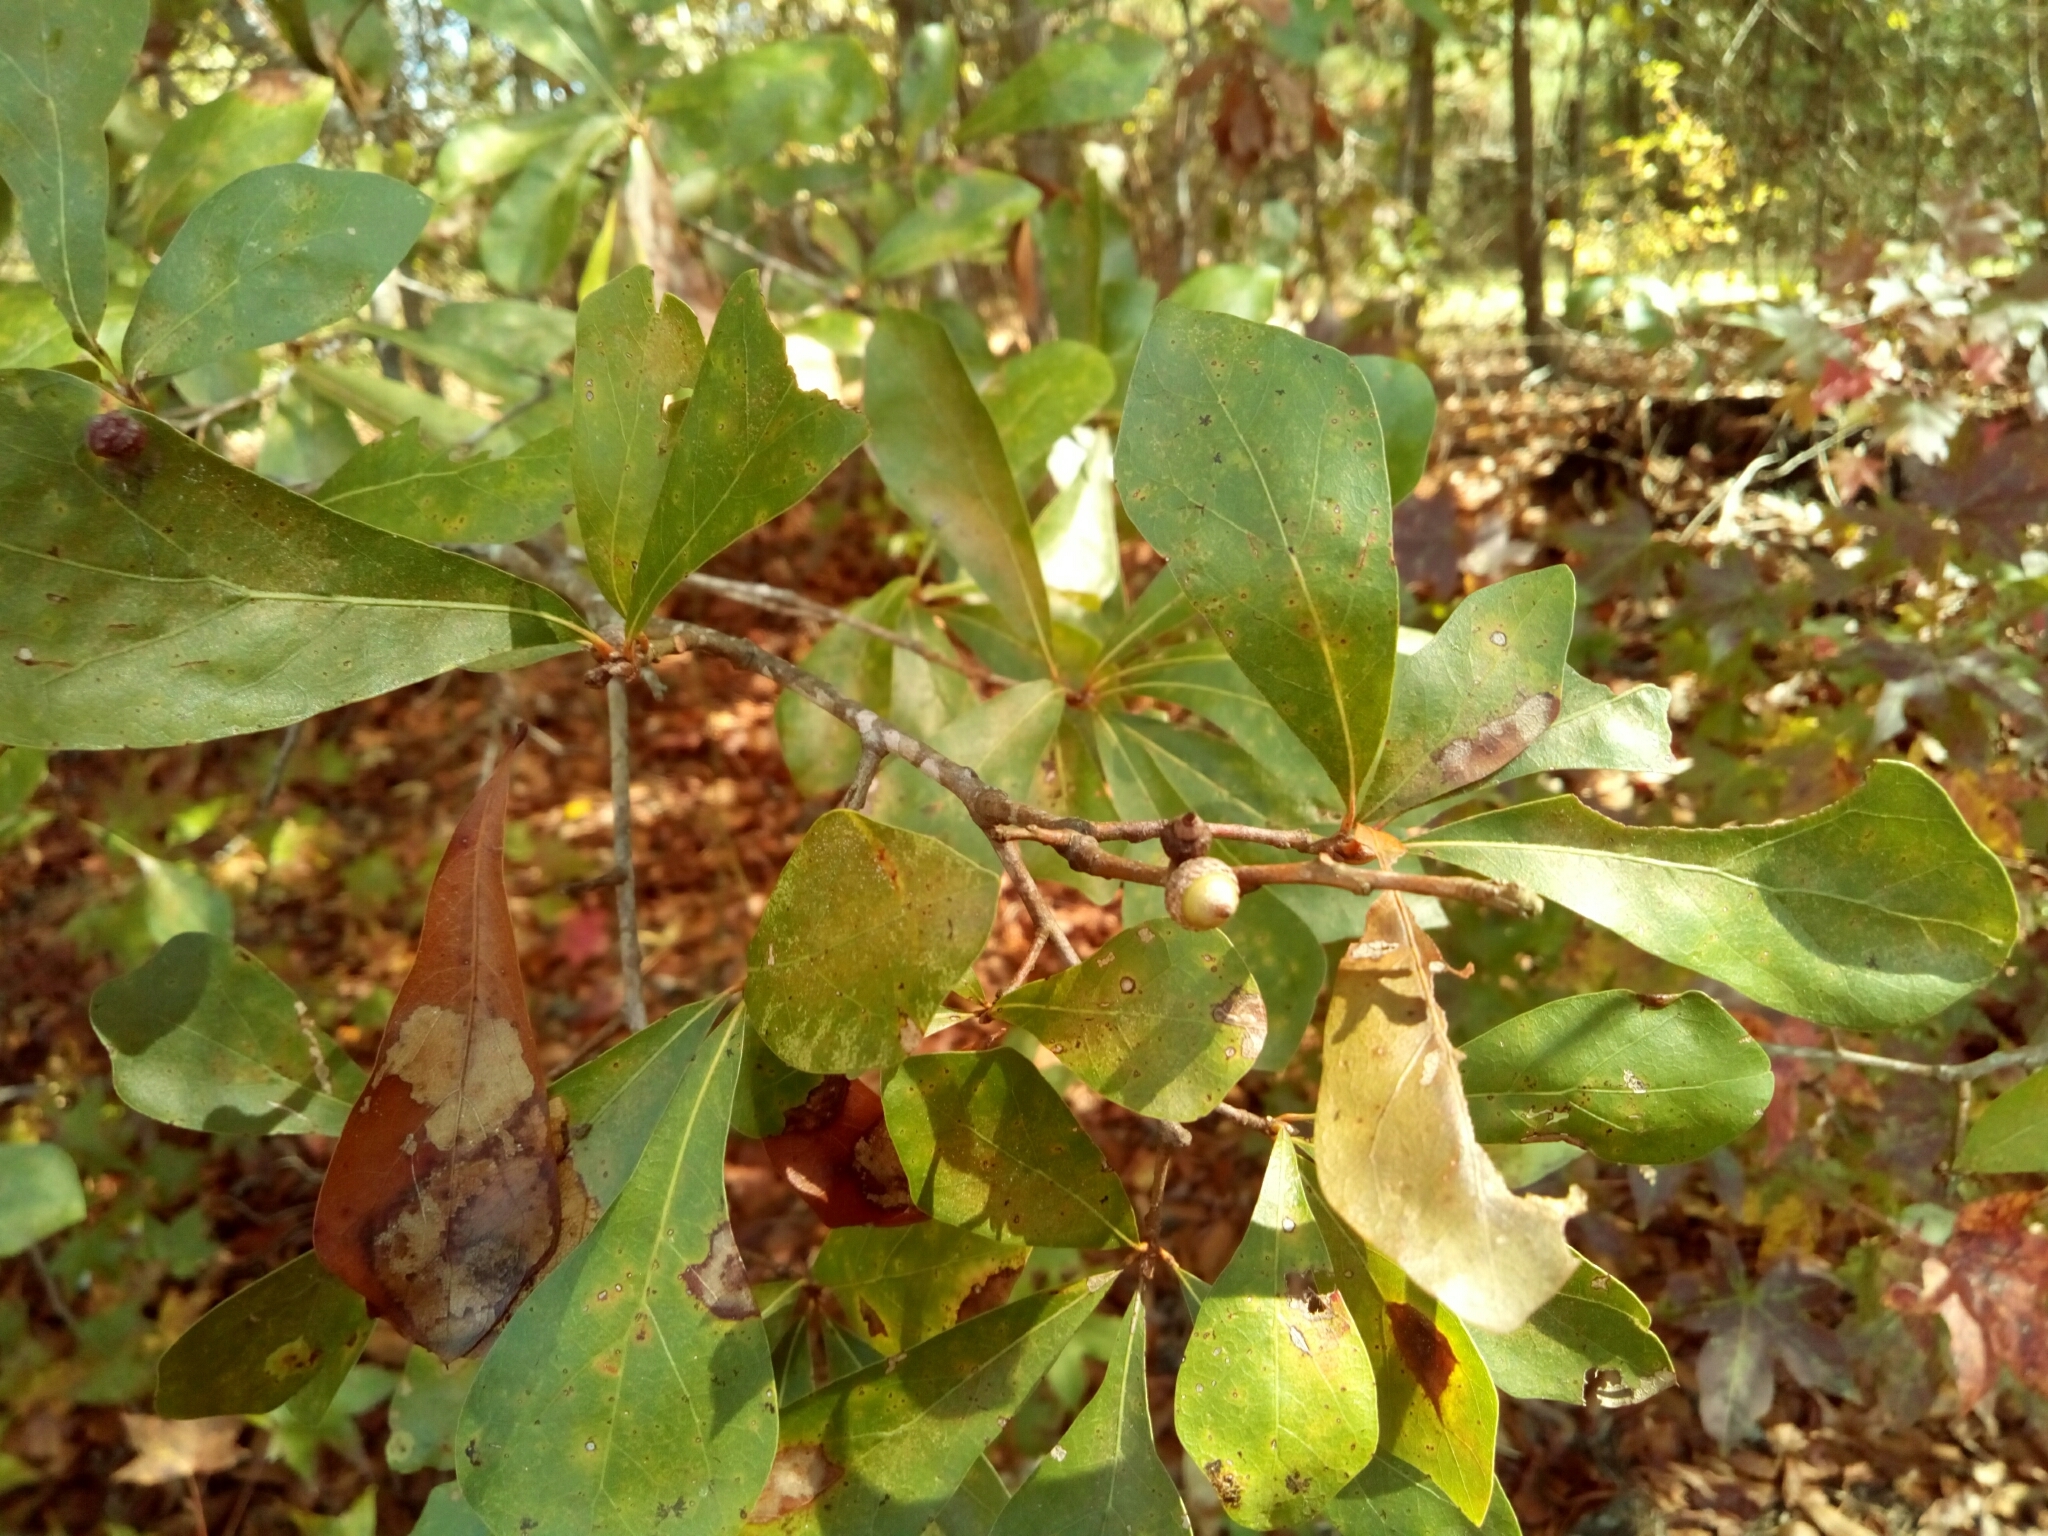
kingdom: Plantae
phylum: Tracheophyta
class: Magnoliopsida
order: Fagales
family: Fagaceae
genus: Quercus
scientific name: Quercus nigra
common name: Water oak
